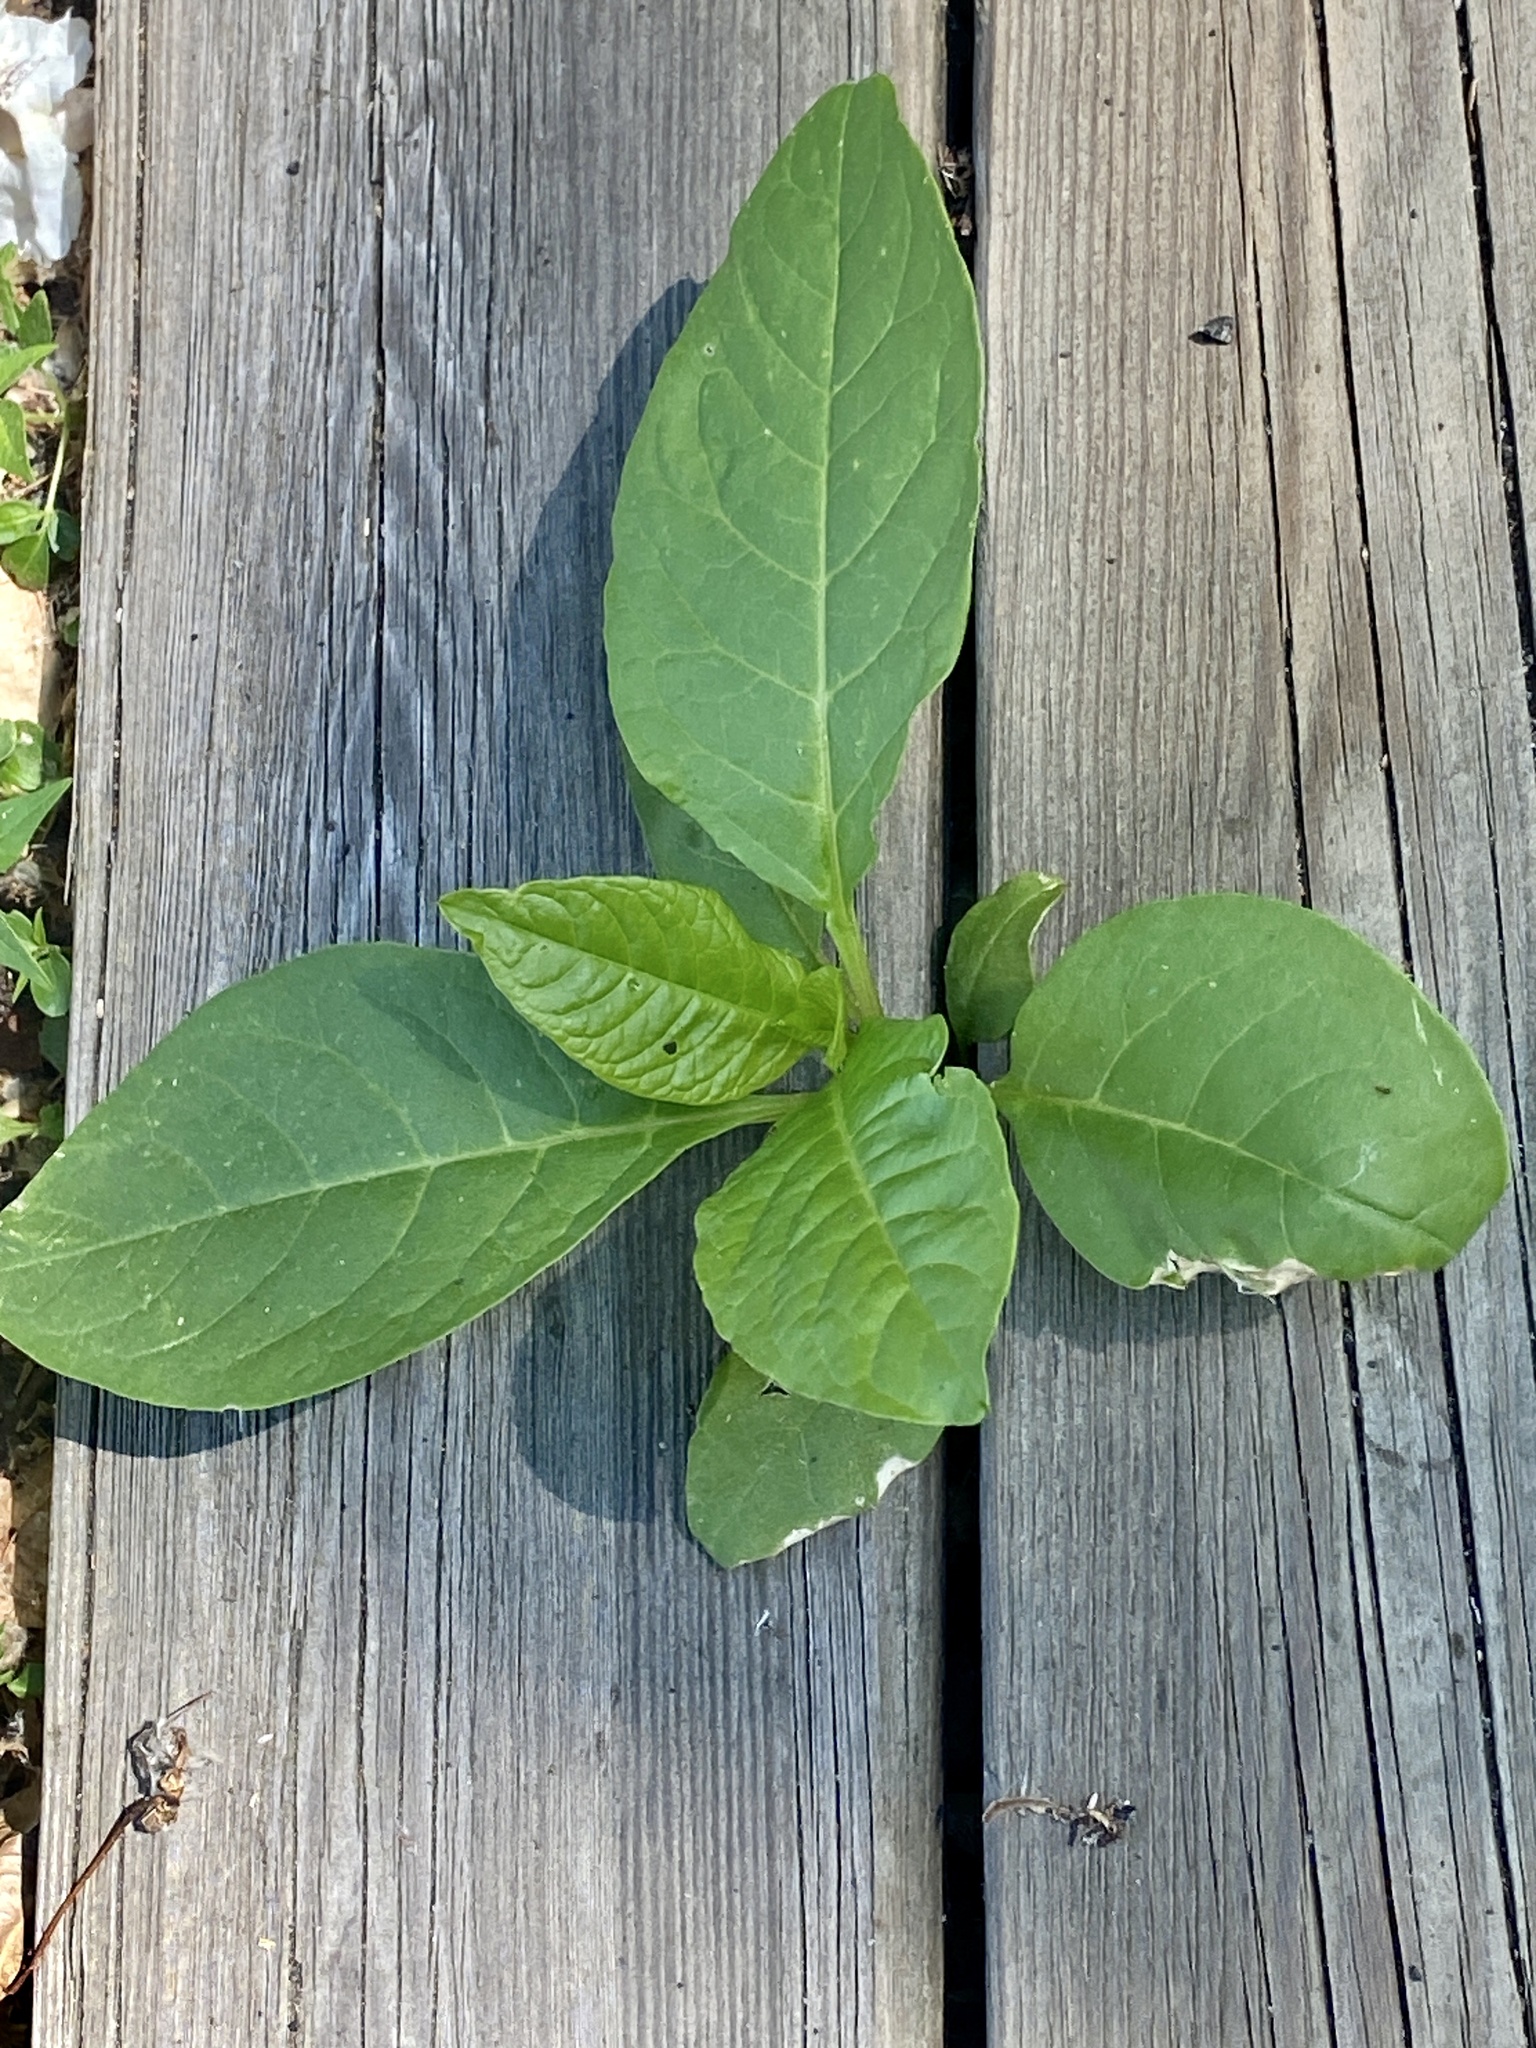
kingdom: Plantae
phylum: Tracheophyta
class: Magnoliopsida
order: Caryophyllales
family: Phytolaccaceae
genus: Phytolacca
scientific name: Phytolacca americana
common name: American pokeweed
